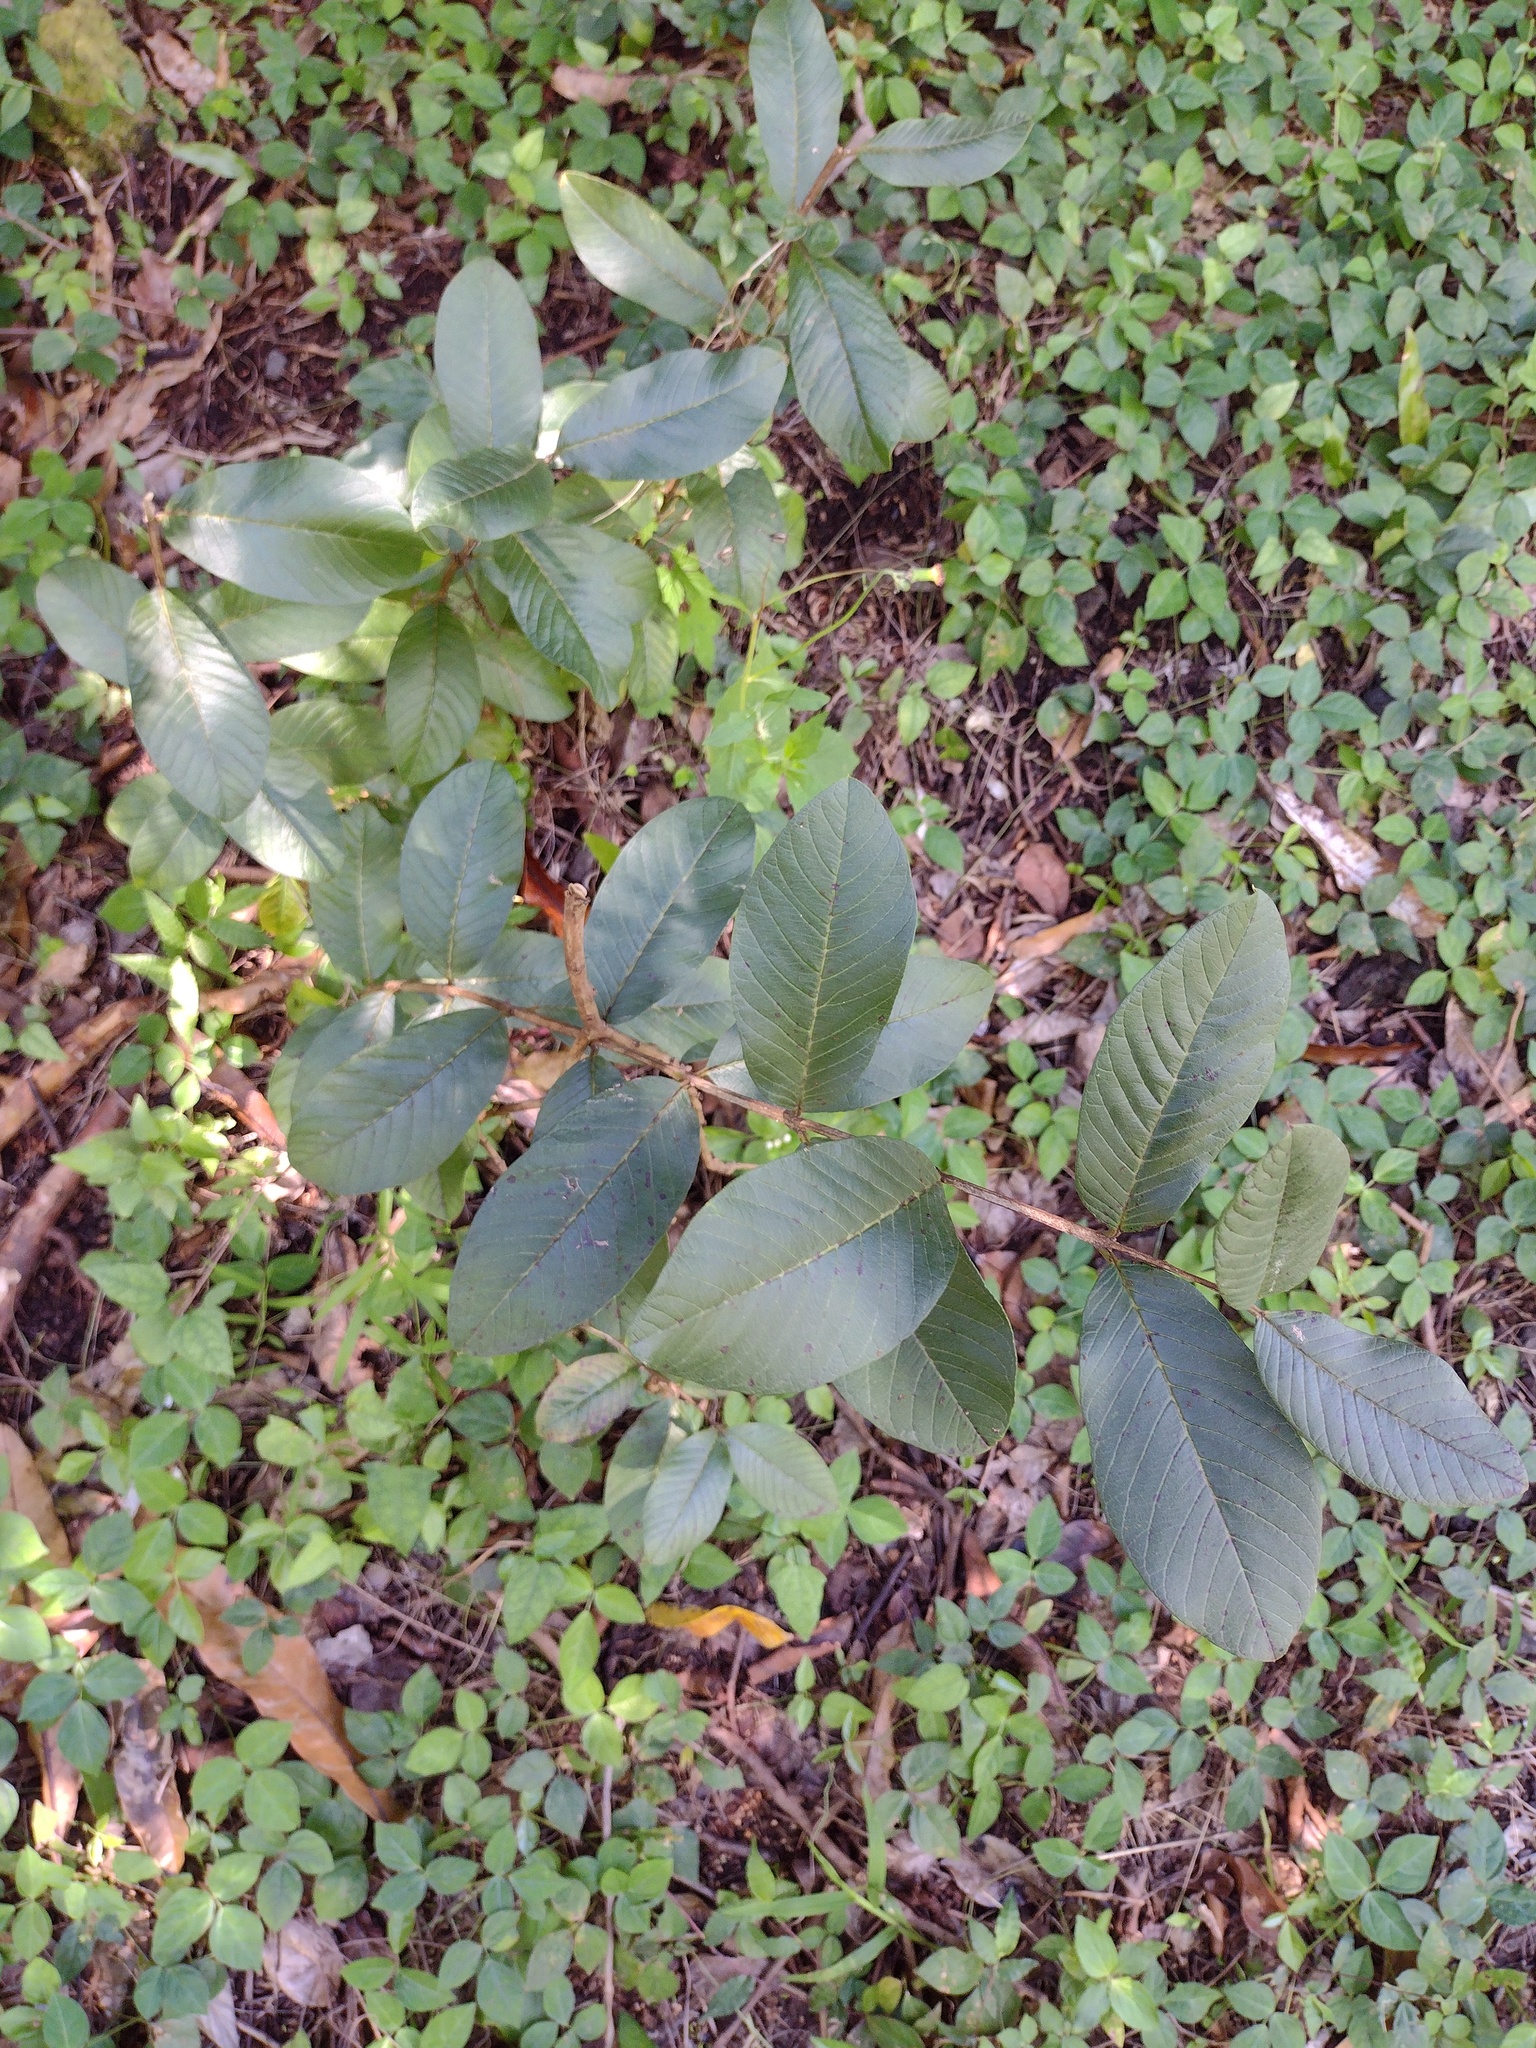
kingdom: Plantae
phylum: Tracheophyta
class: Magnoliopsida
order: Myrtales
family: Myrtaceae
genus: Psidium
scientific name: Psidium guajava
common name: Guava
